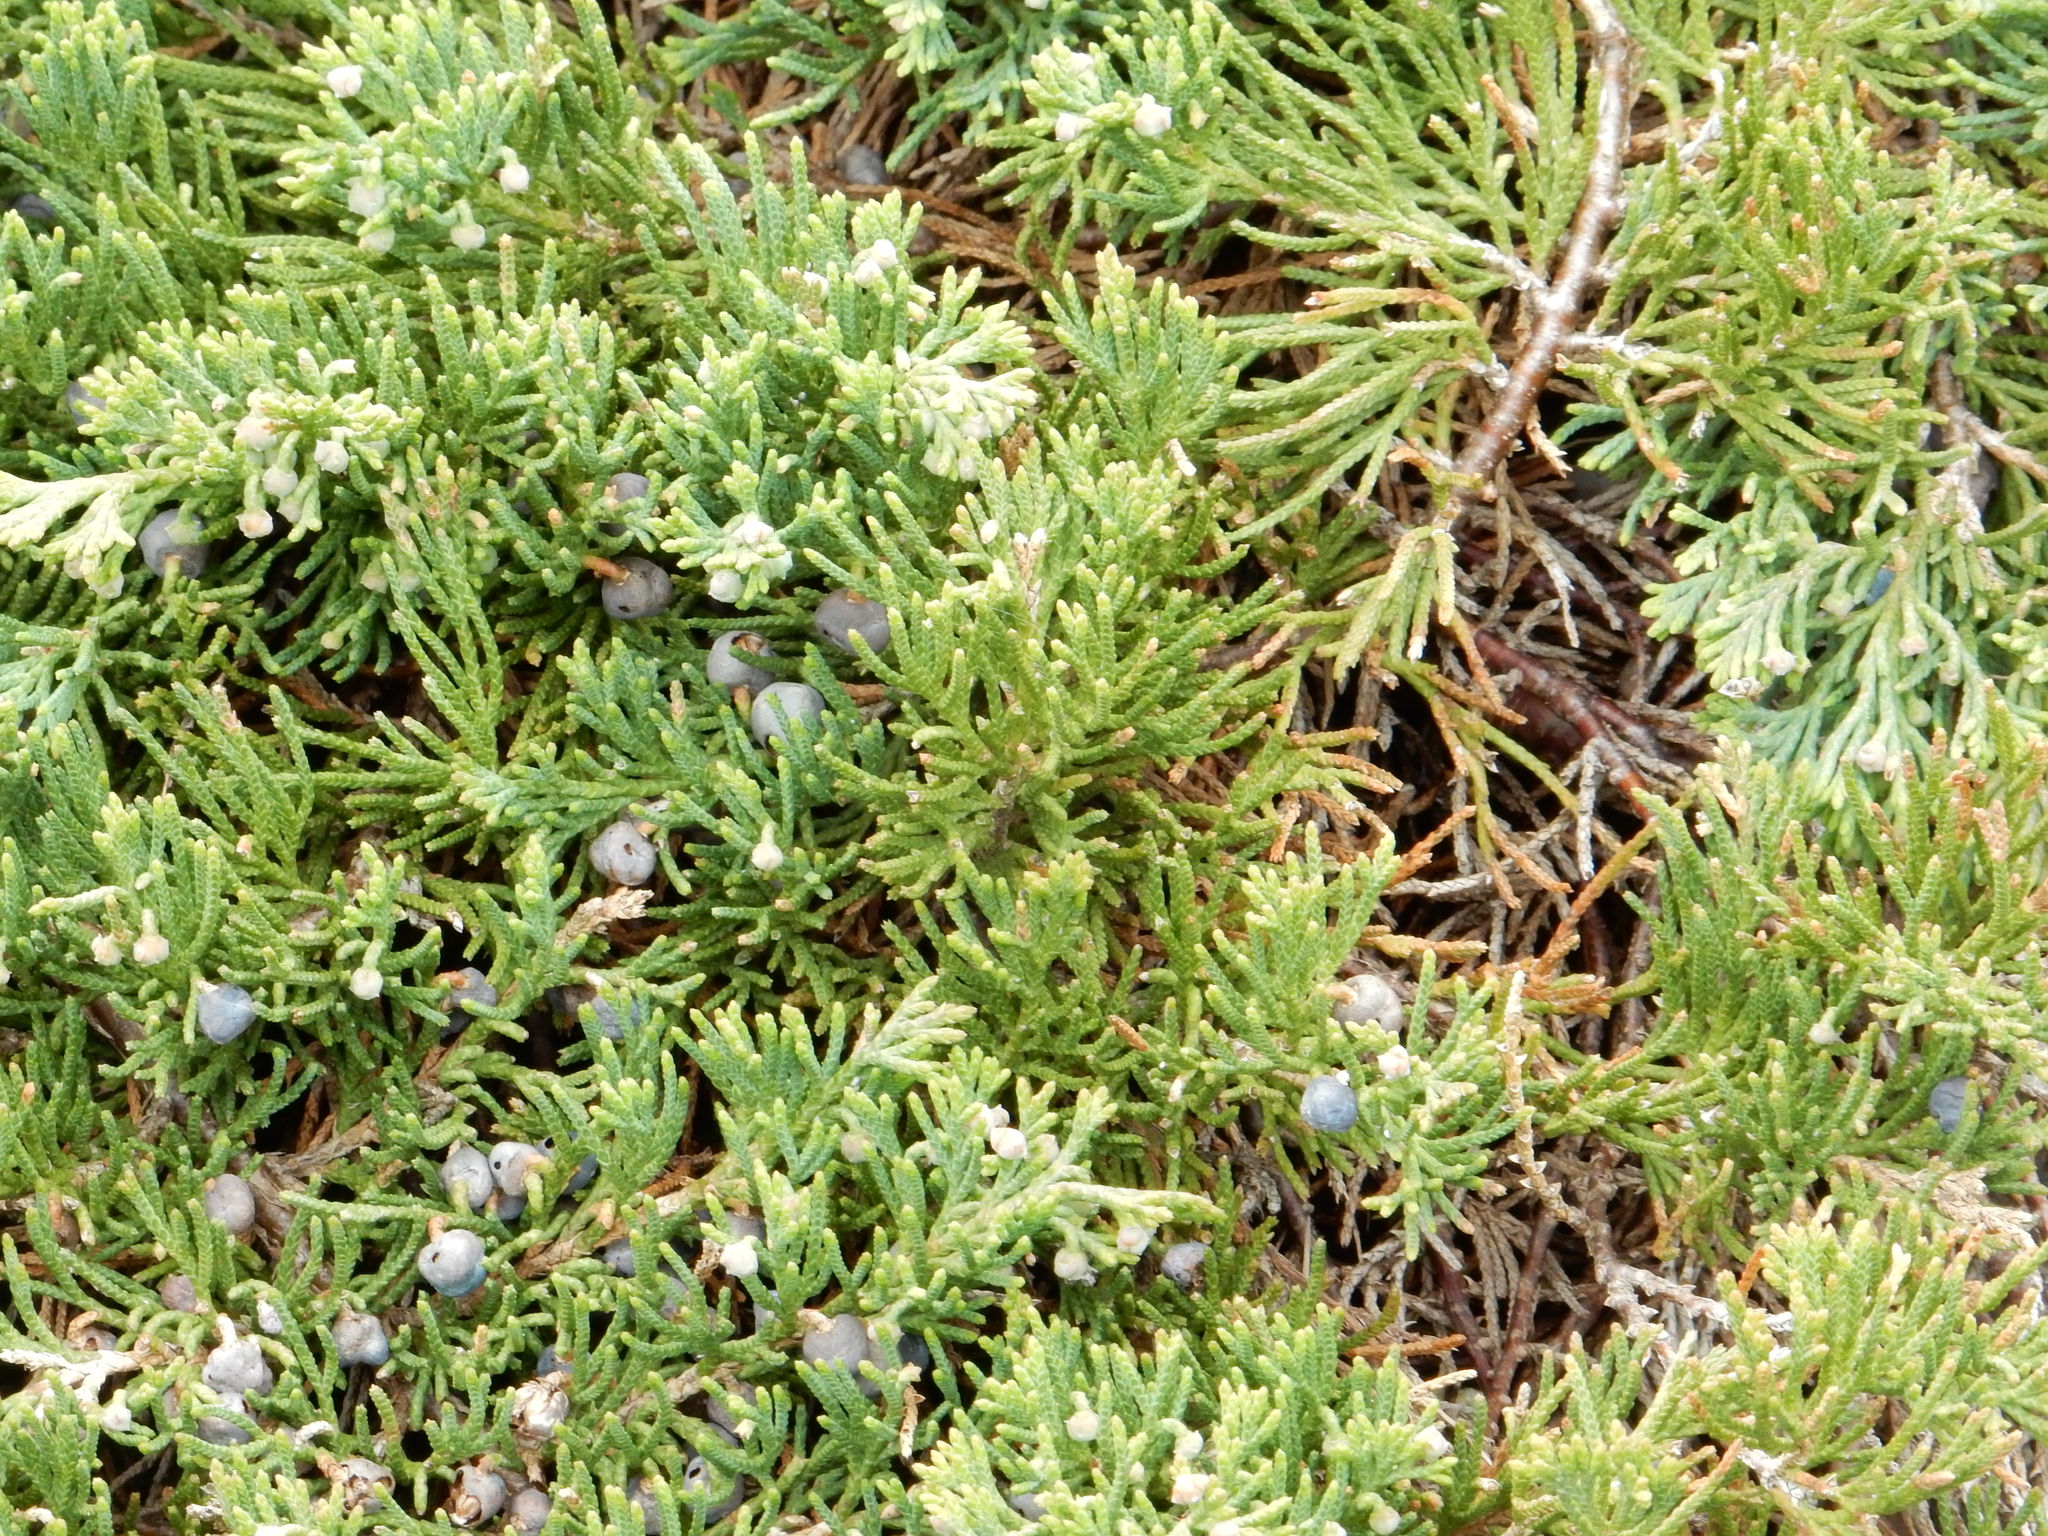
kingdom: Plantae
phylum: Tracheophyta
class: Pinopsida
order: Pinales
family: Cupressaceae
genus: Juniperus
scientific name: Juniperus horizontalis
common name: Creeping juniper
